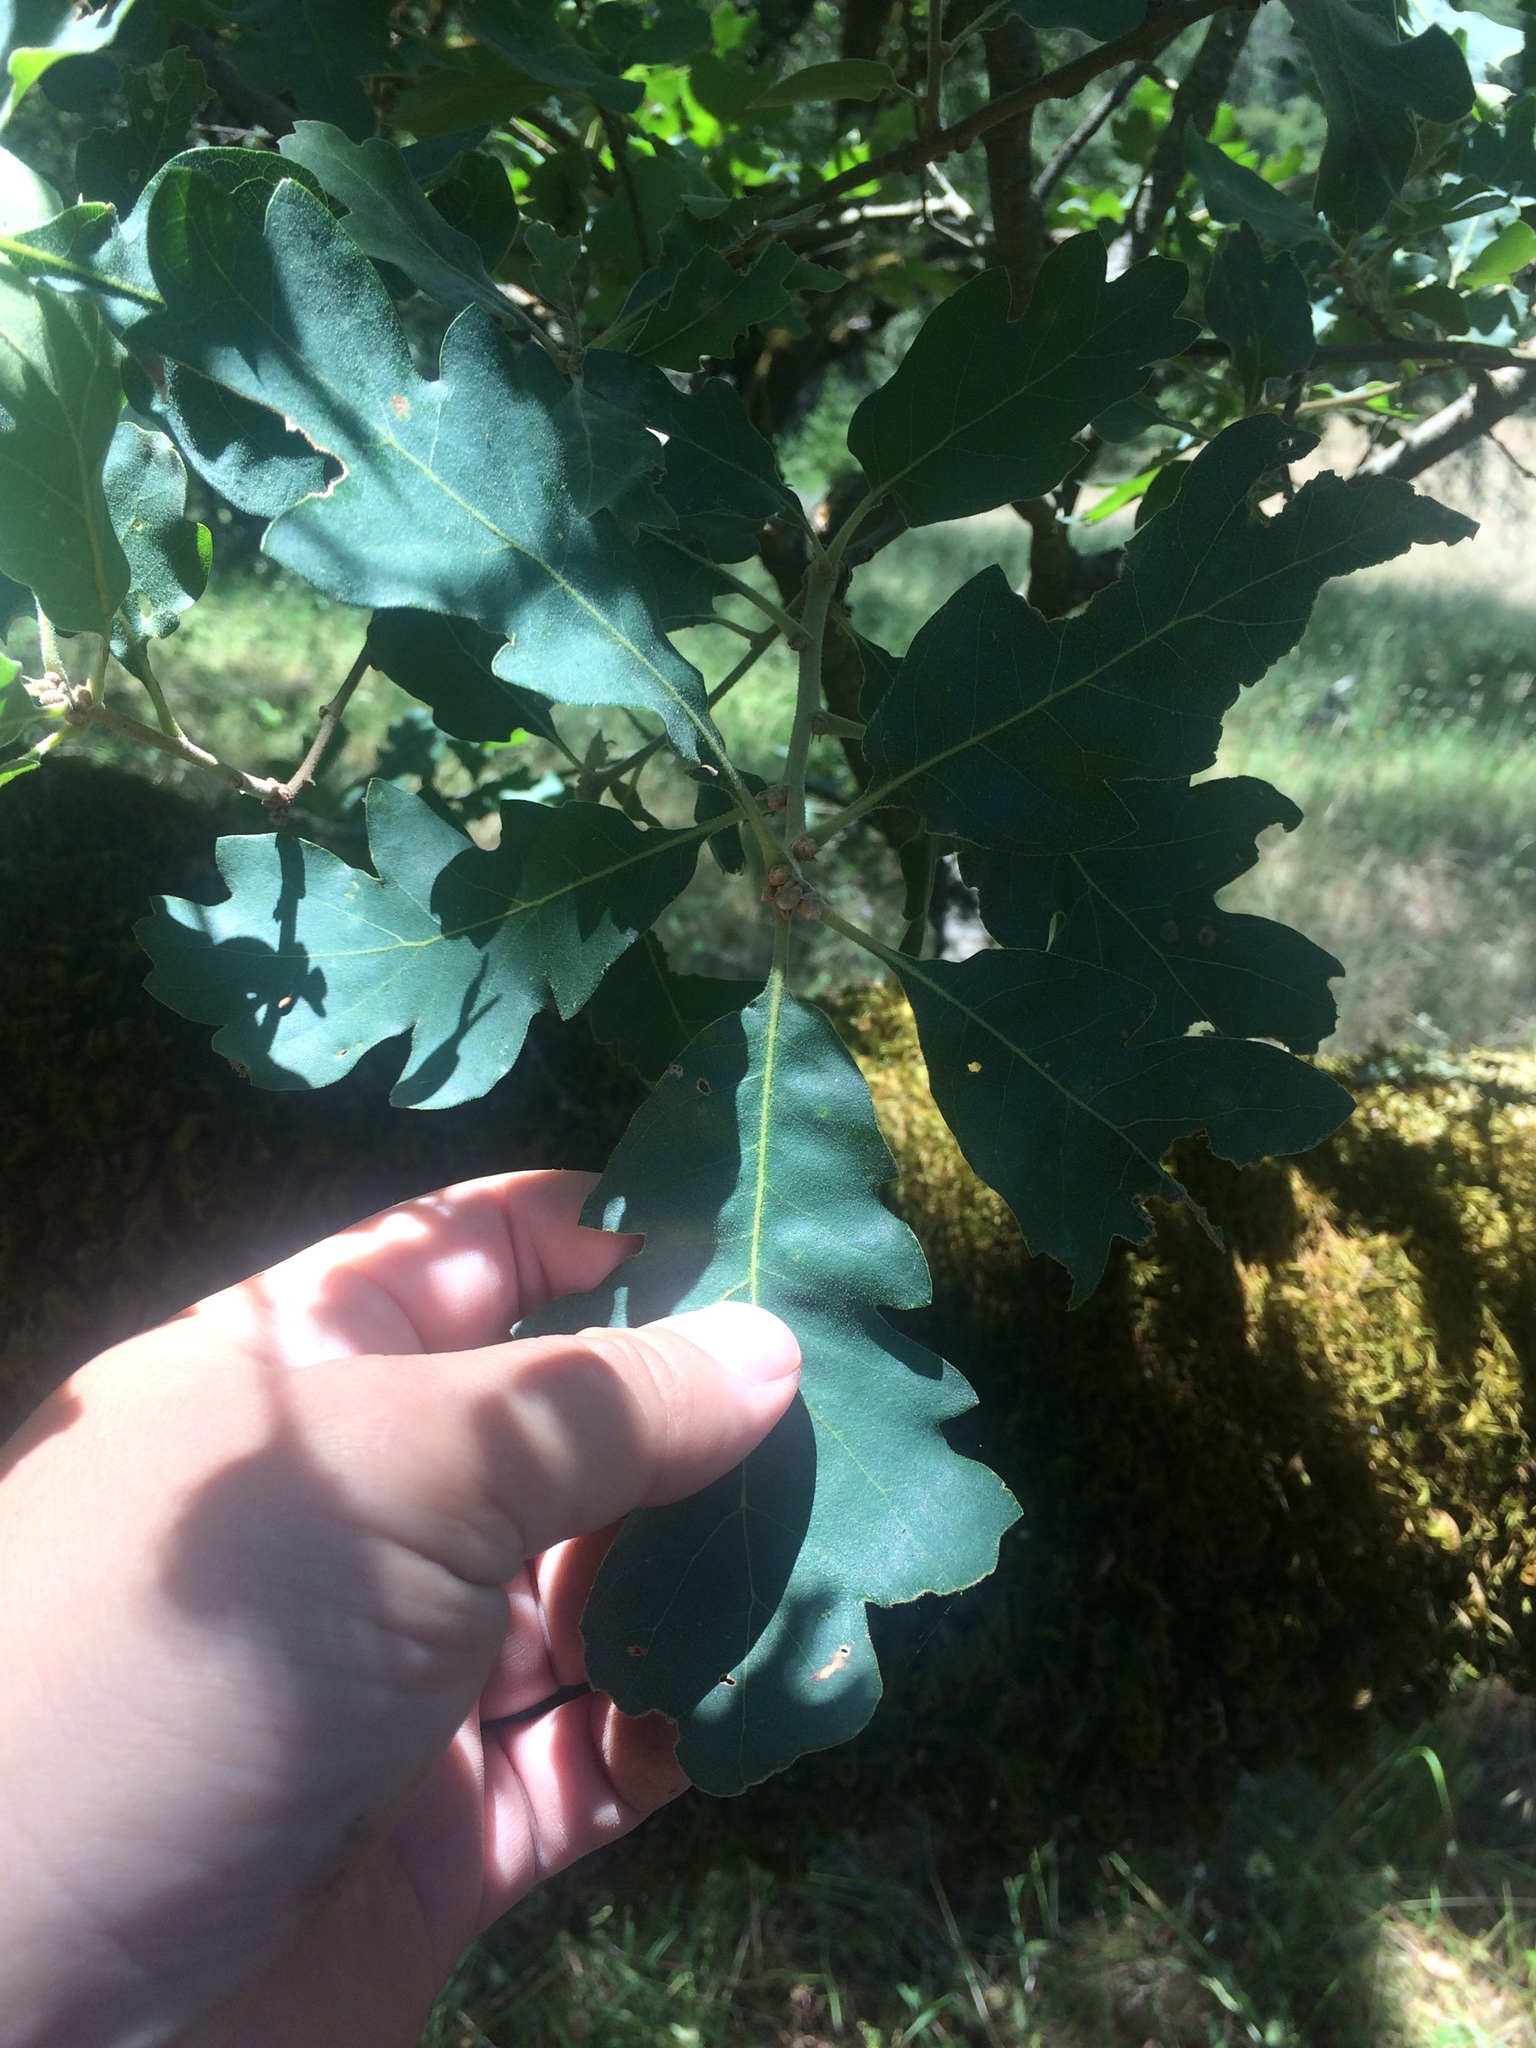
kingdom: Plantae
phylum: Tracheophyta
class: Magnoliopsida
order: Fagales
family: Fagaceae
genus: Quercus
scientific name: Quercus douglasii
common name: Blue oak
